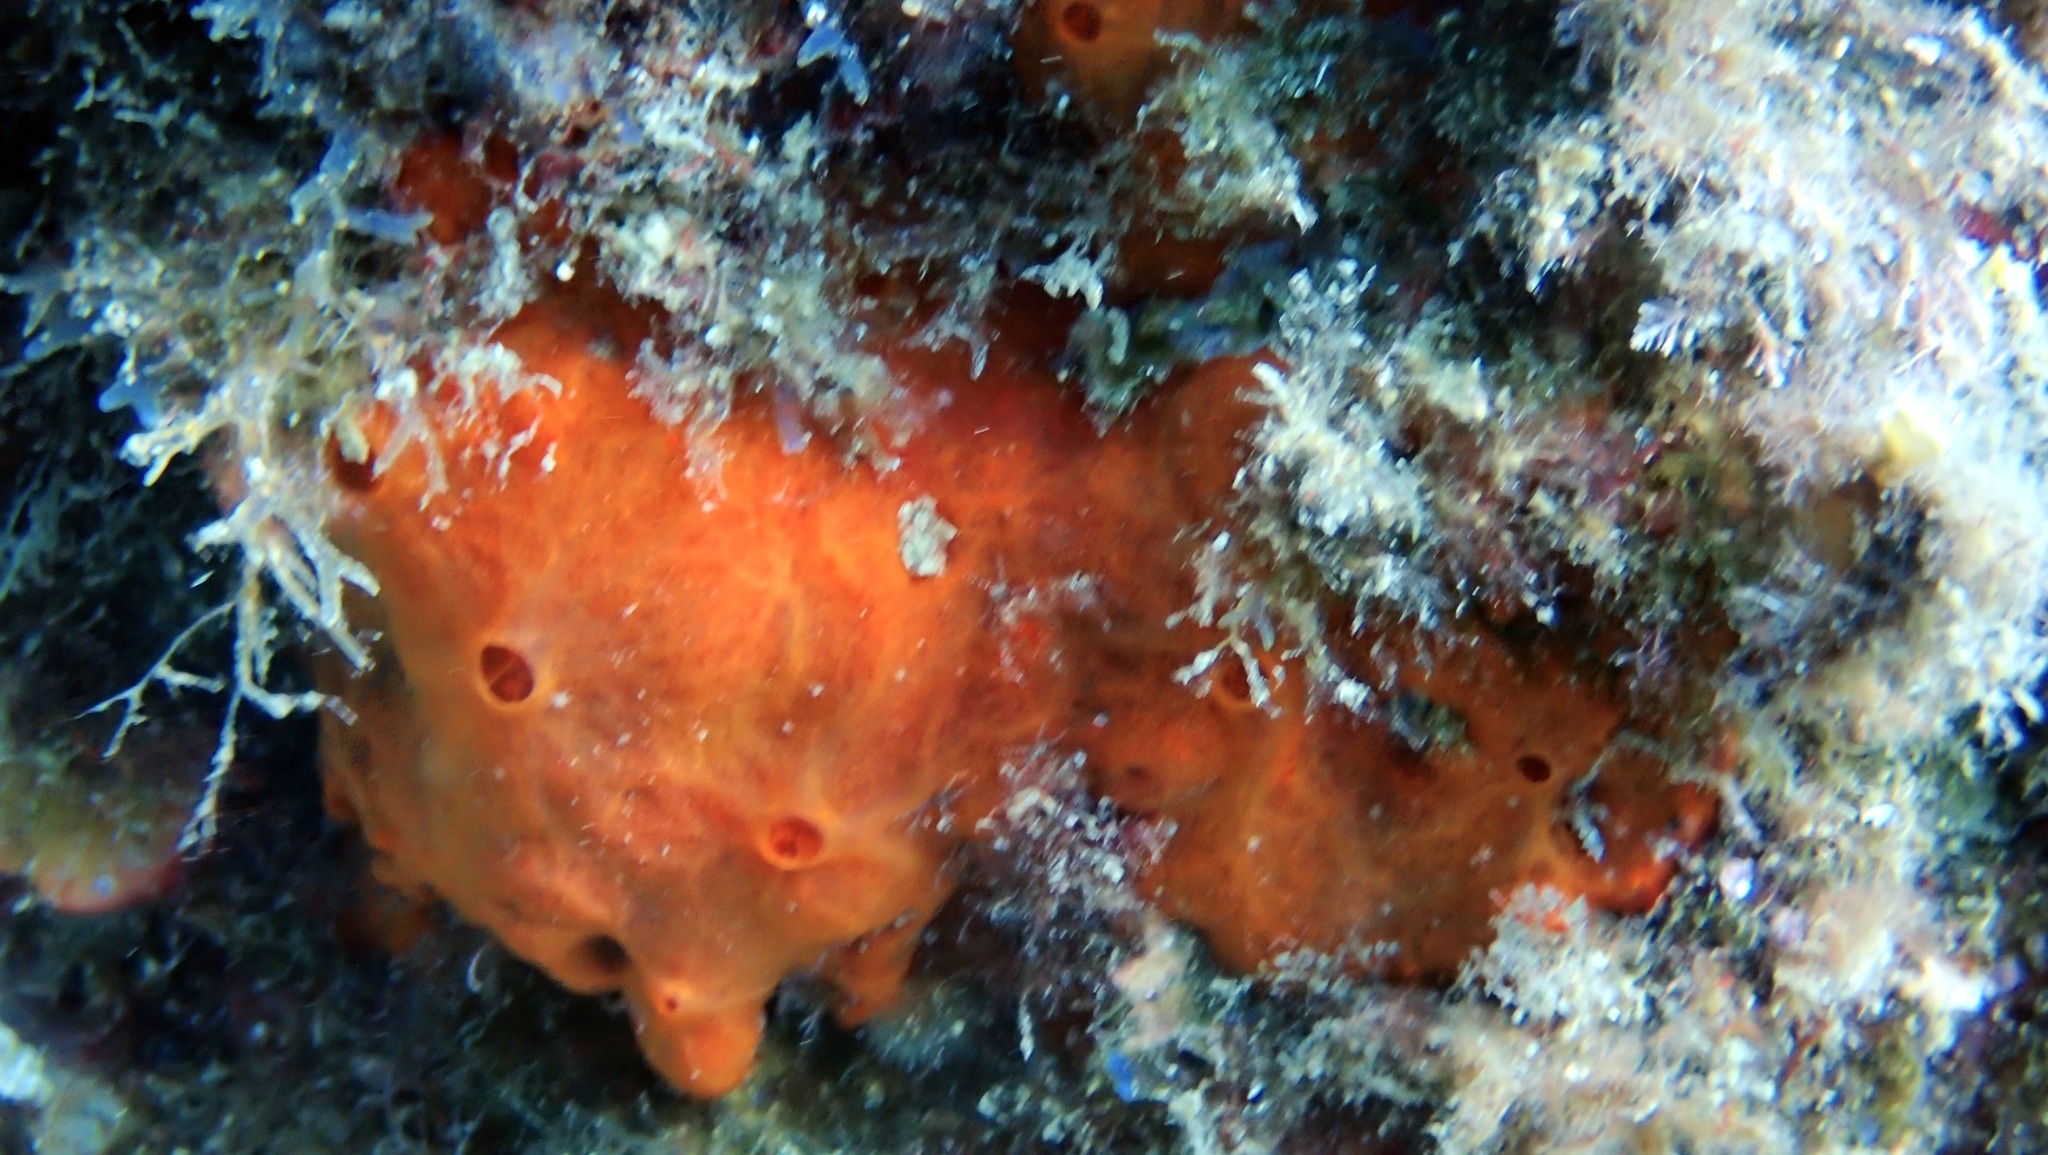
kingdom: Animalia
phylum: Porifera
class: Demospongiae
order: Poecilosclerida
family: Crambeidae
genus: Crambe
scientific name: Crambe crambe
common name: Orange-red encrusting sponge
